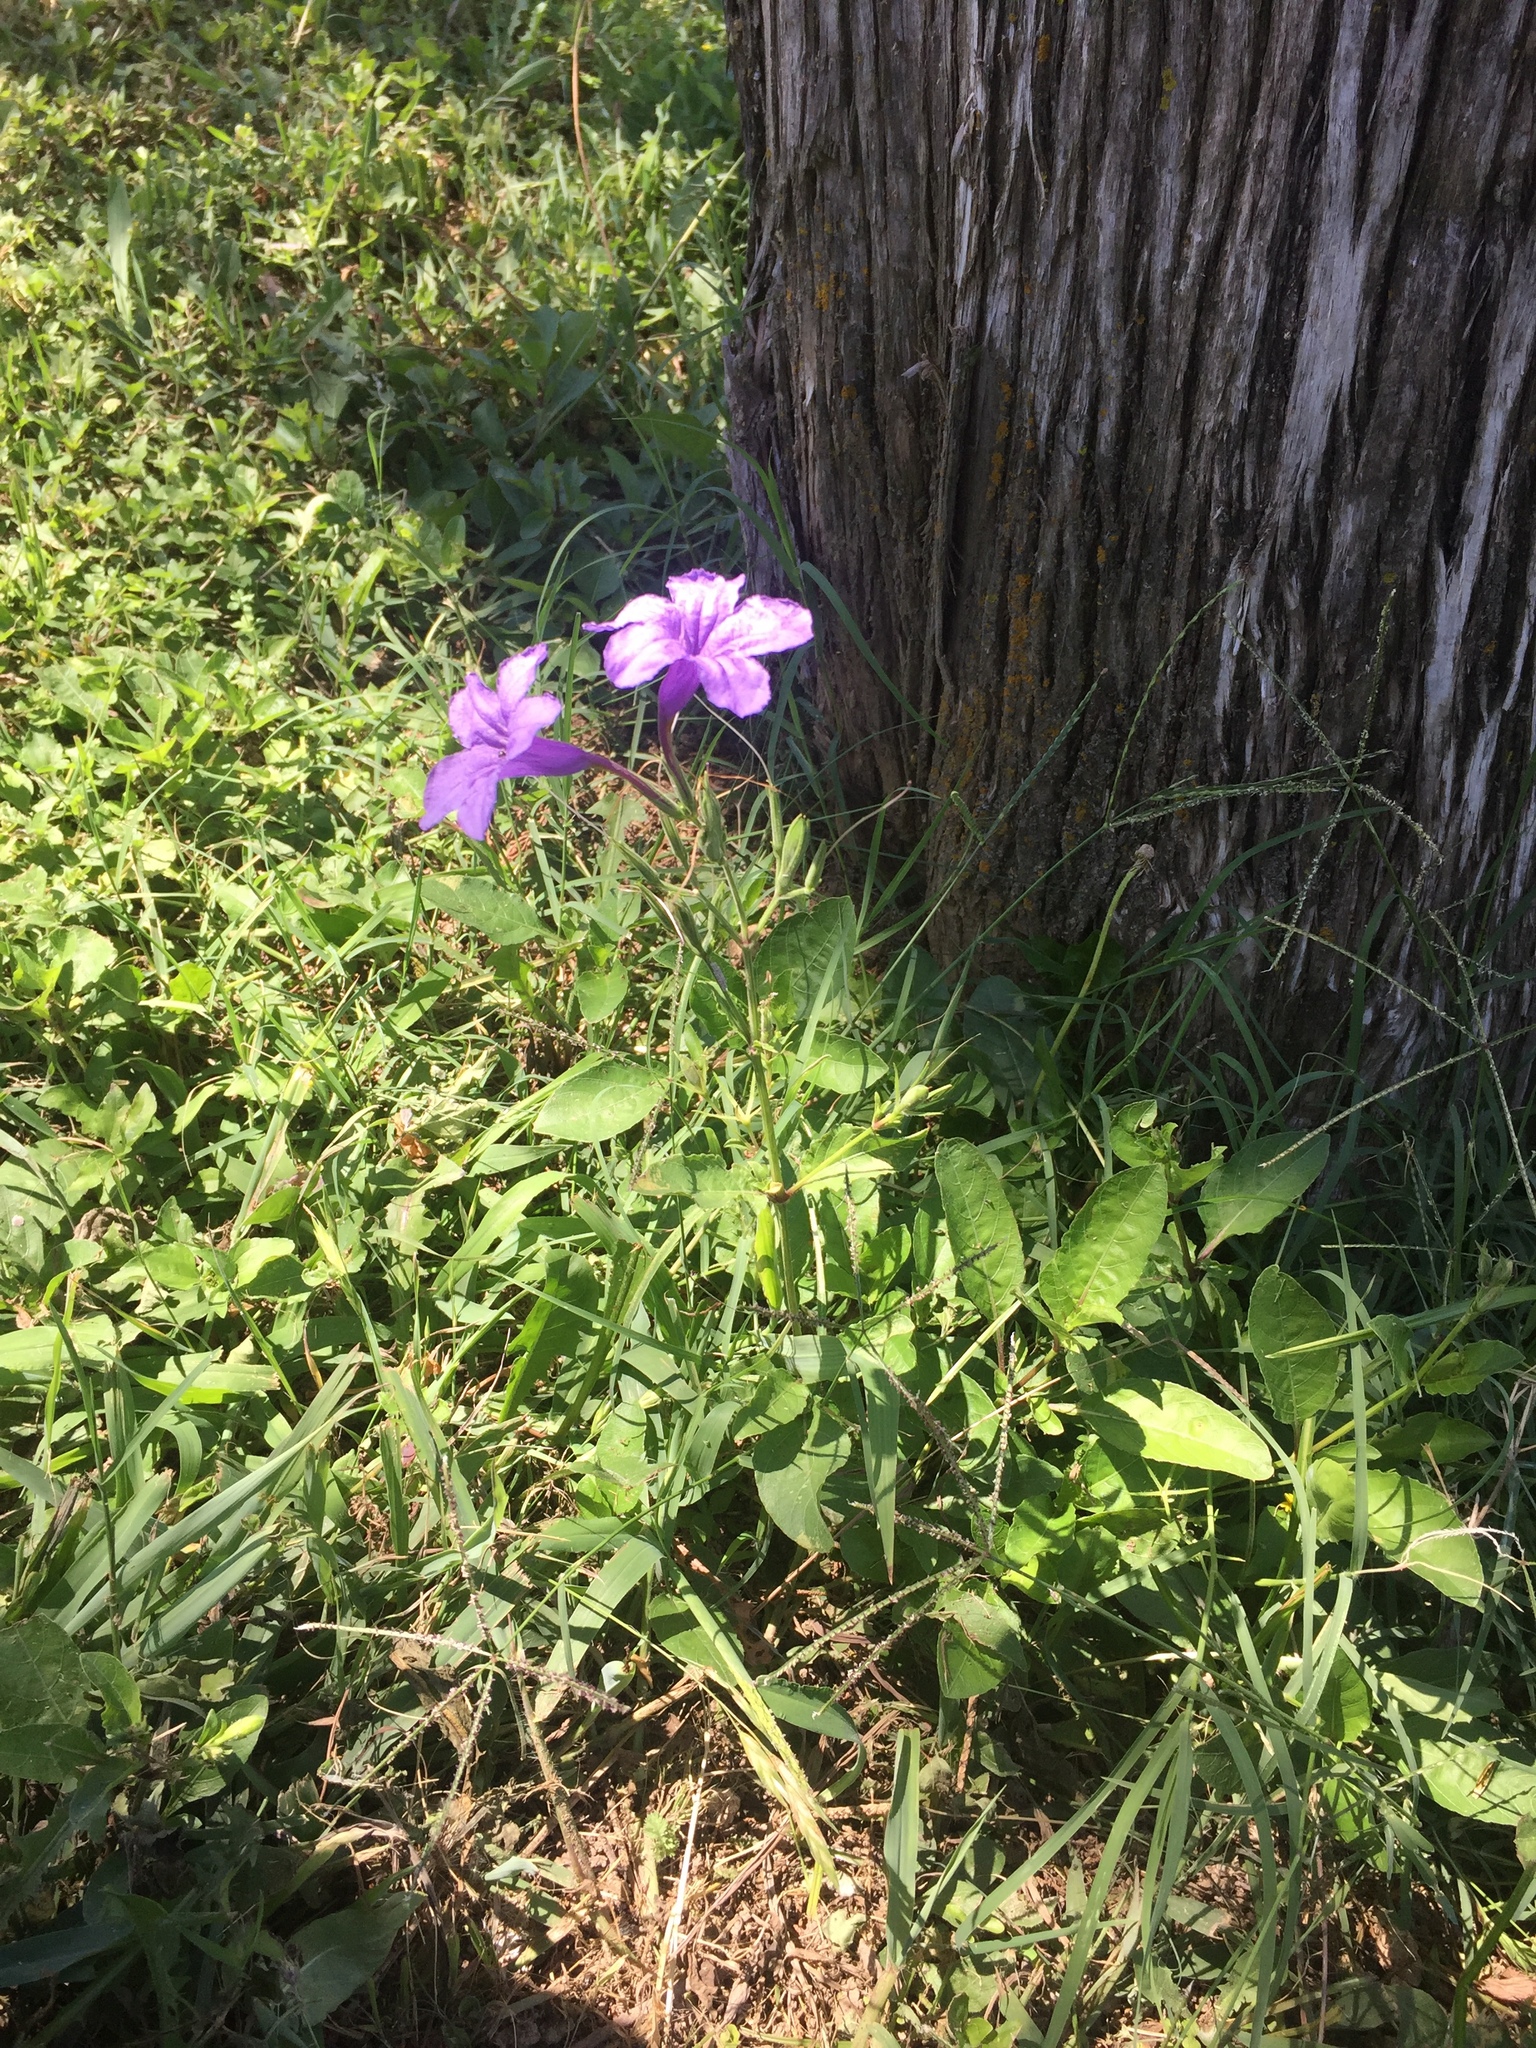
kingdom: Plantae
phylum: Tracheophyta
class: Magnoliopsida
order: Lamiales
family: Acanthaceae
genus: Ruellia
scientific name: Ruellia ciliatiflora
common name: Hairyflower wild petunia
